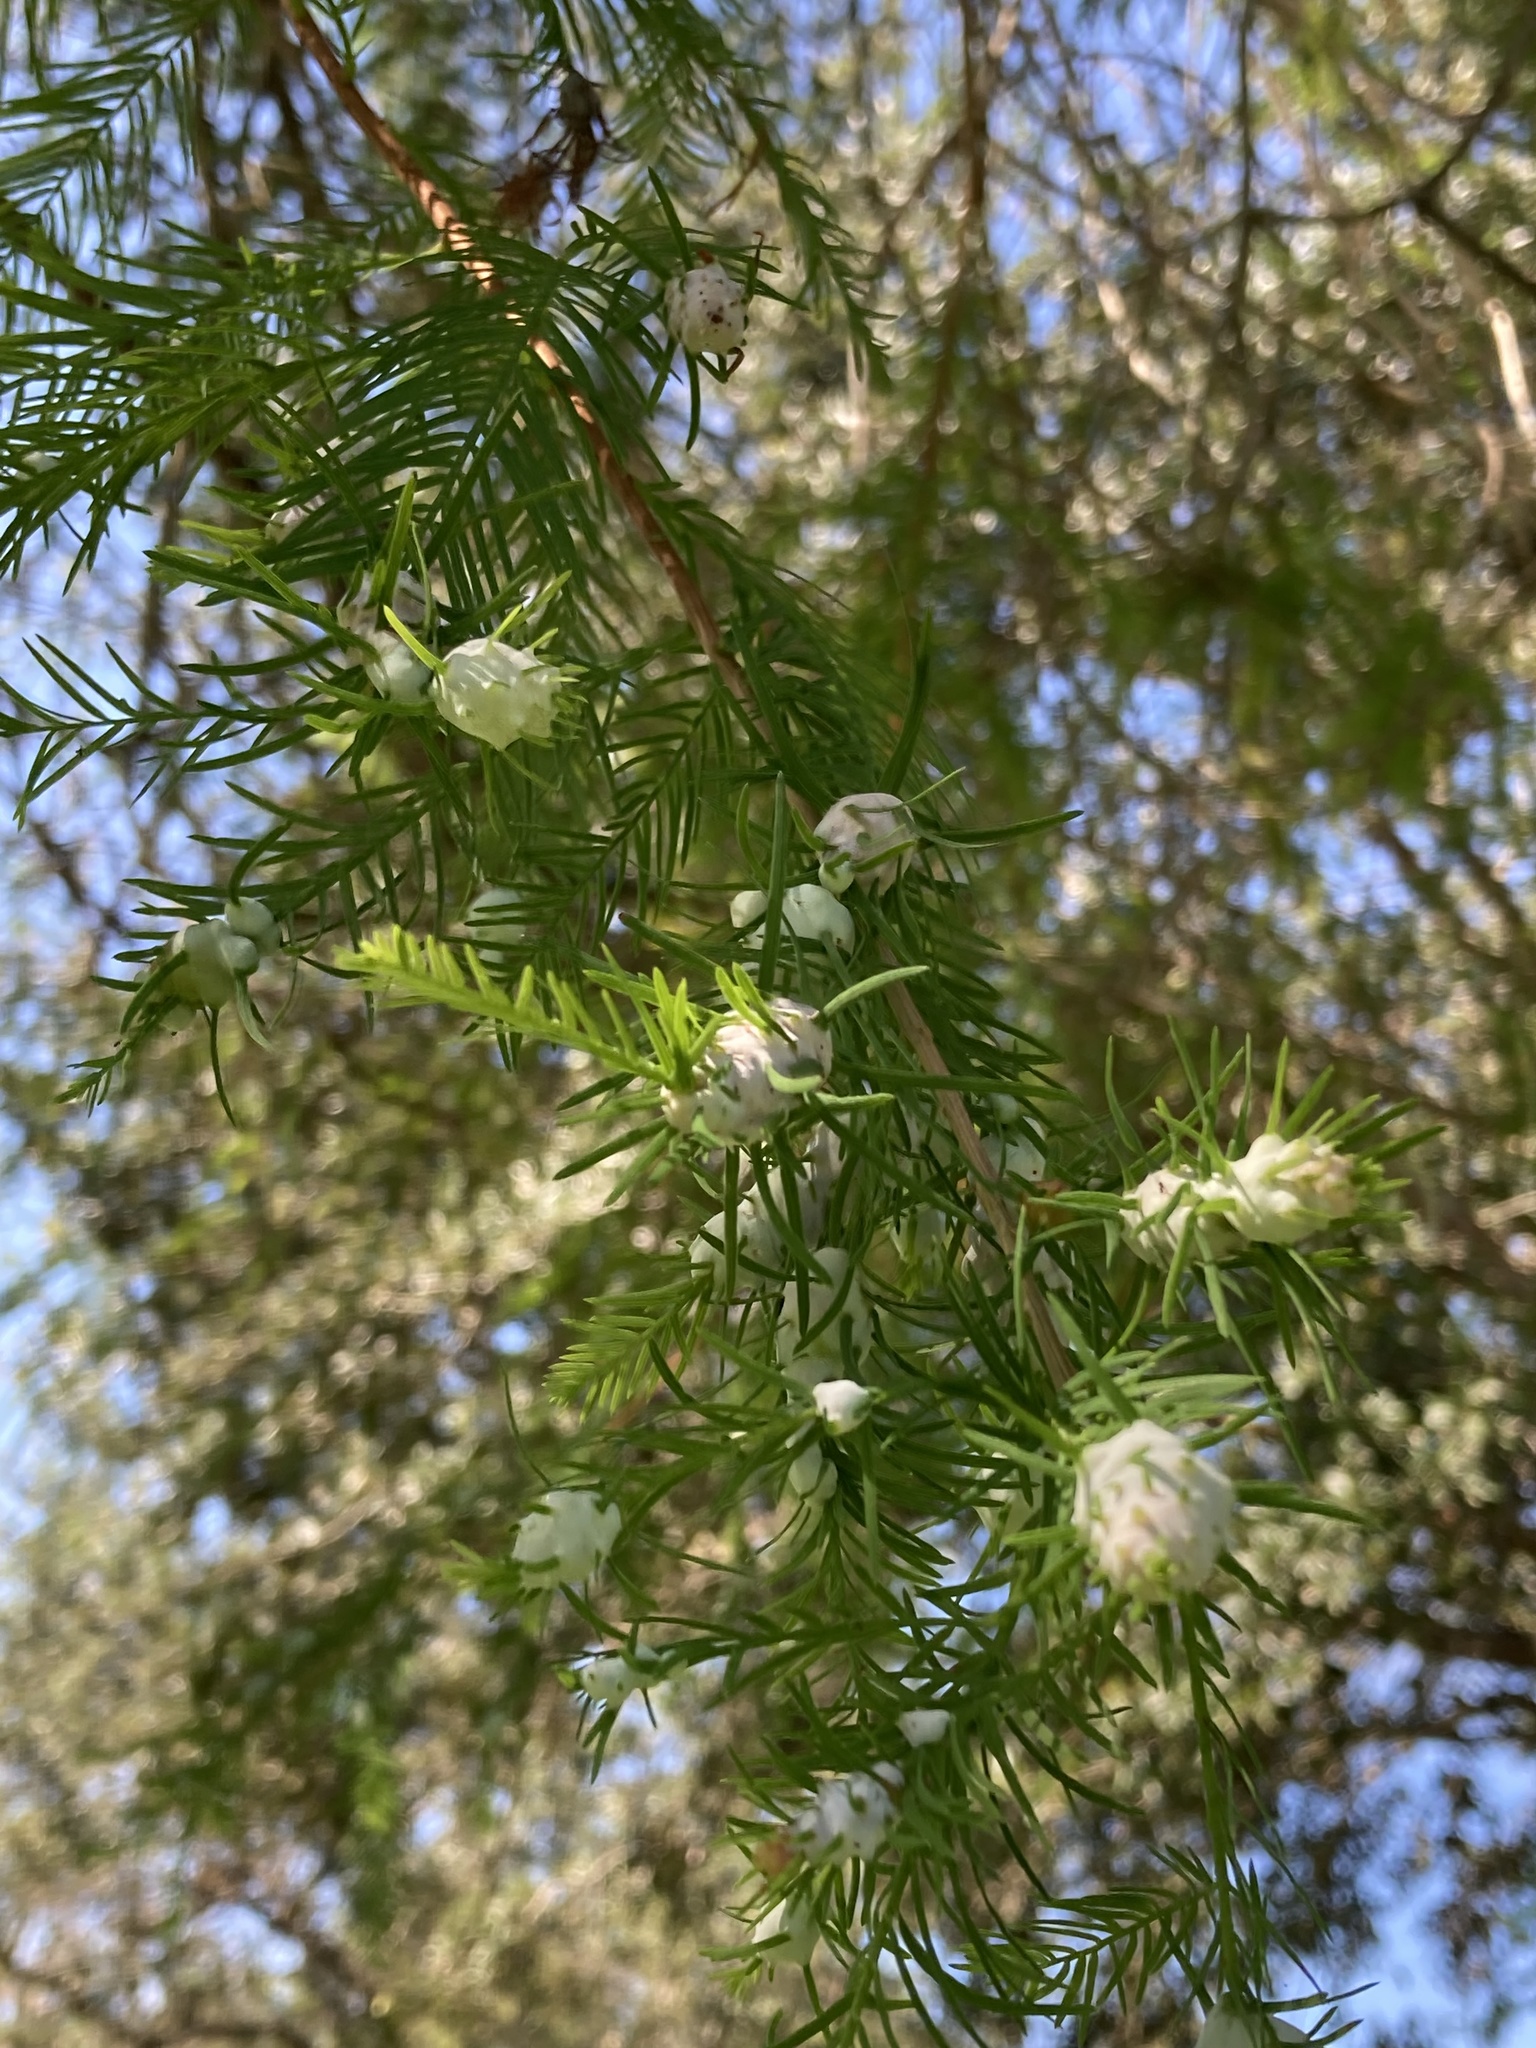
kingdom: Animalia
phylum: Arthropoda
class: Insecta
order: Diptera
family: Cecidomyiidae
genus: Taxodiomyia
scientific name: Taxodiomyia cupressiananassa
